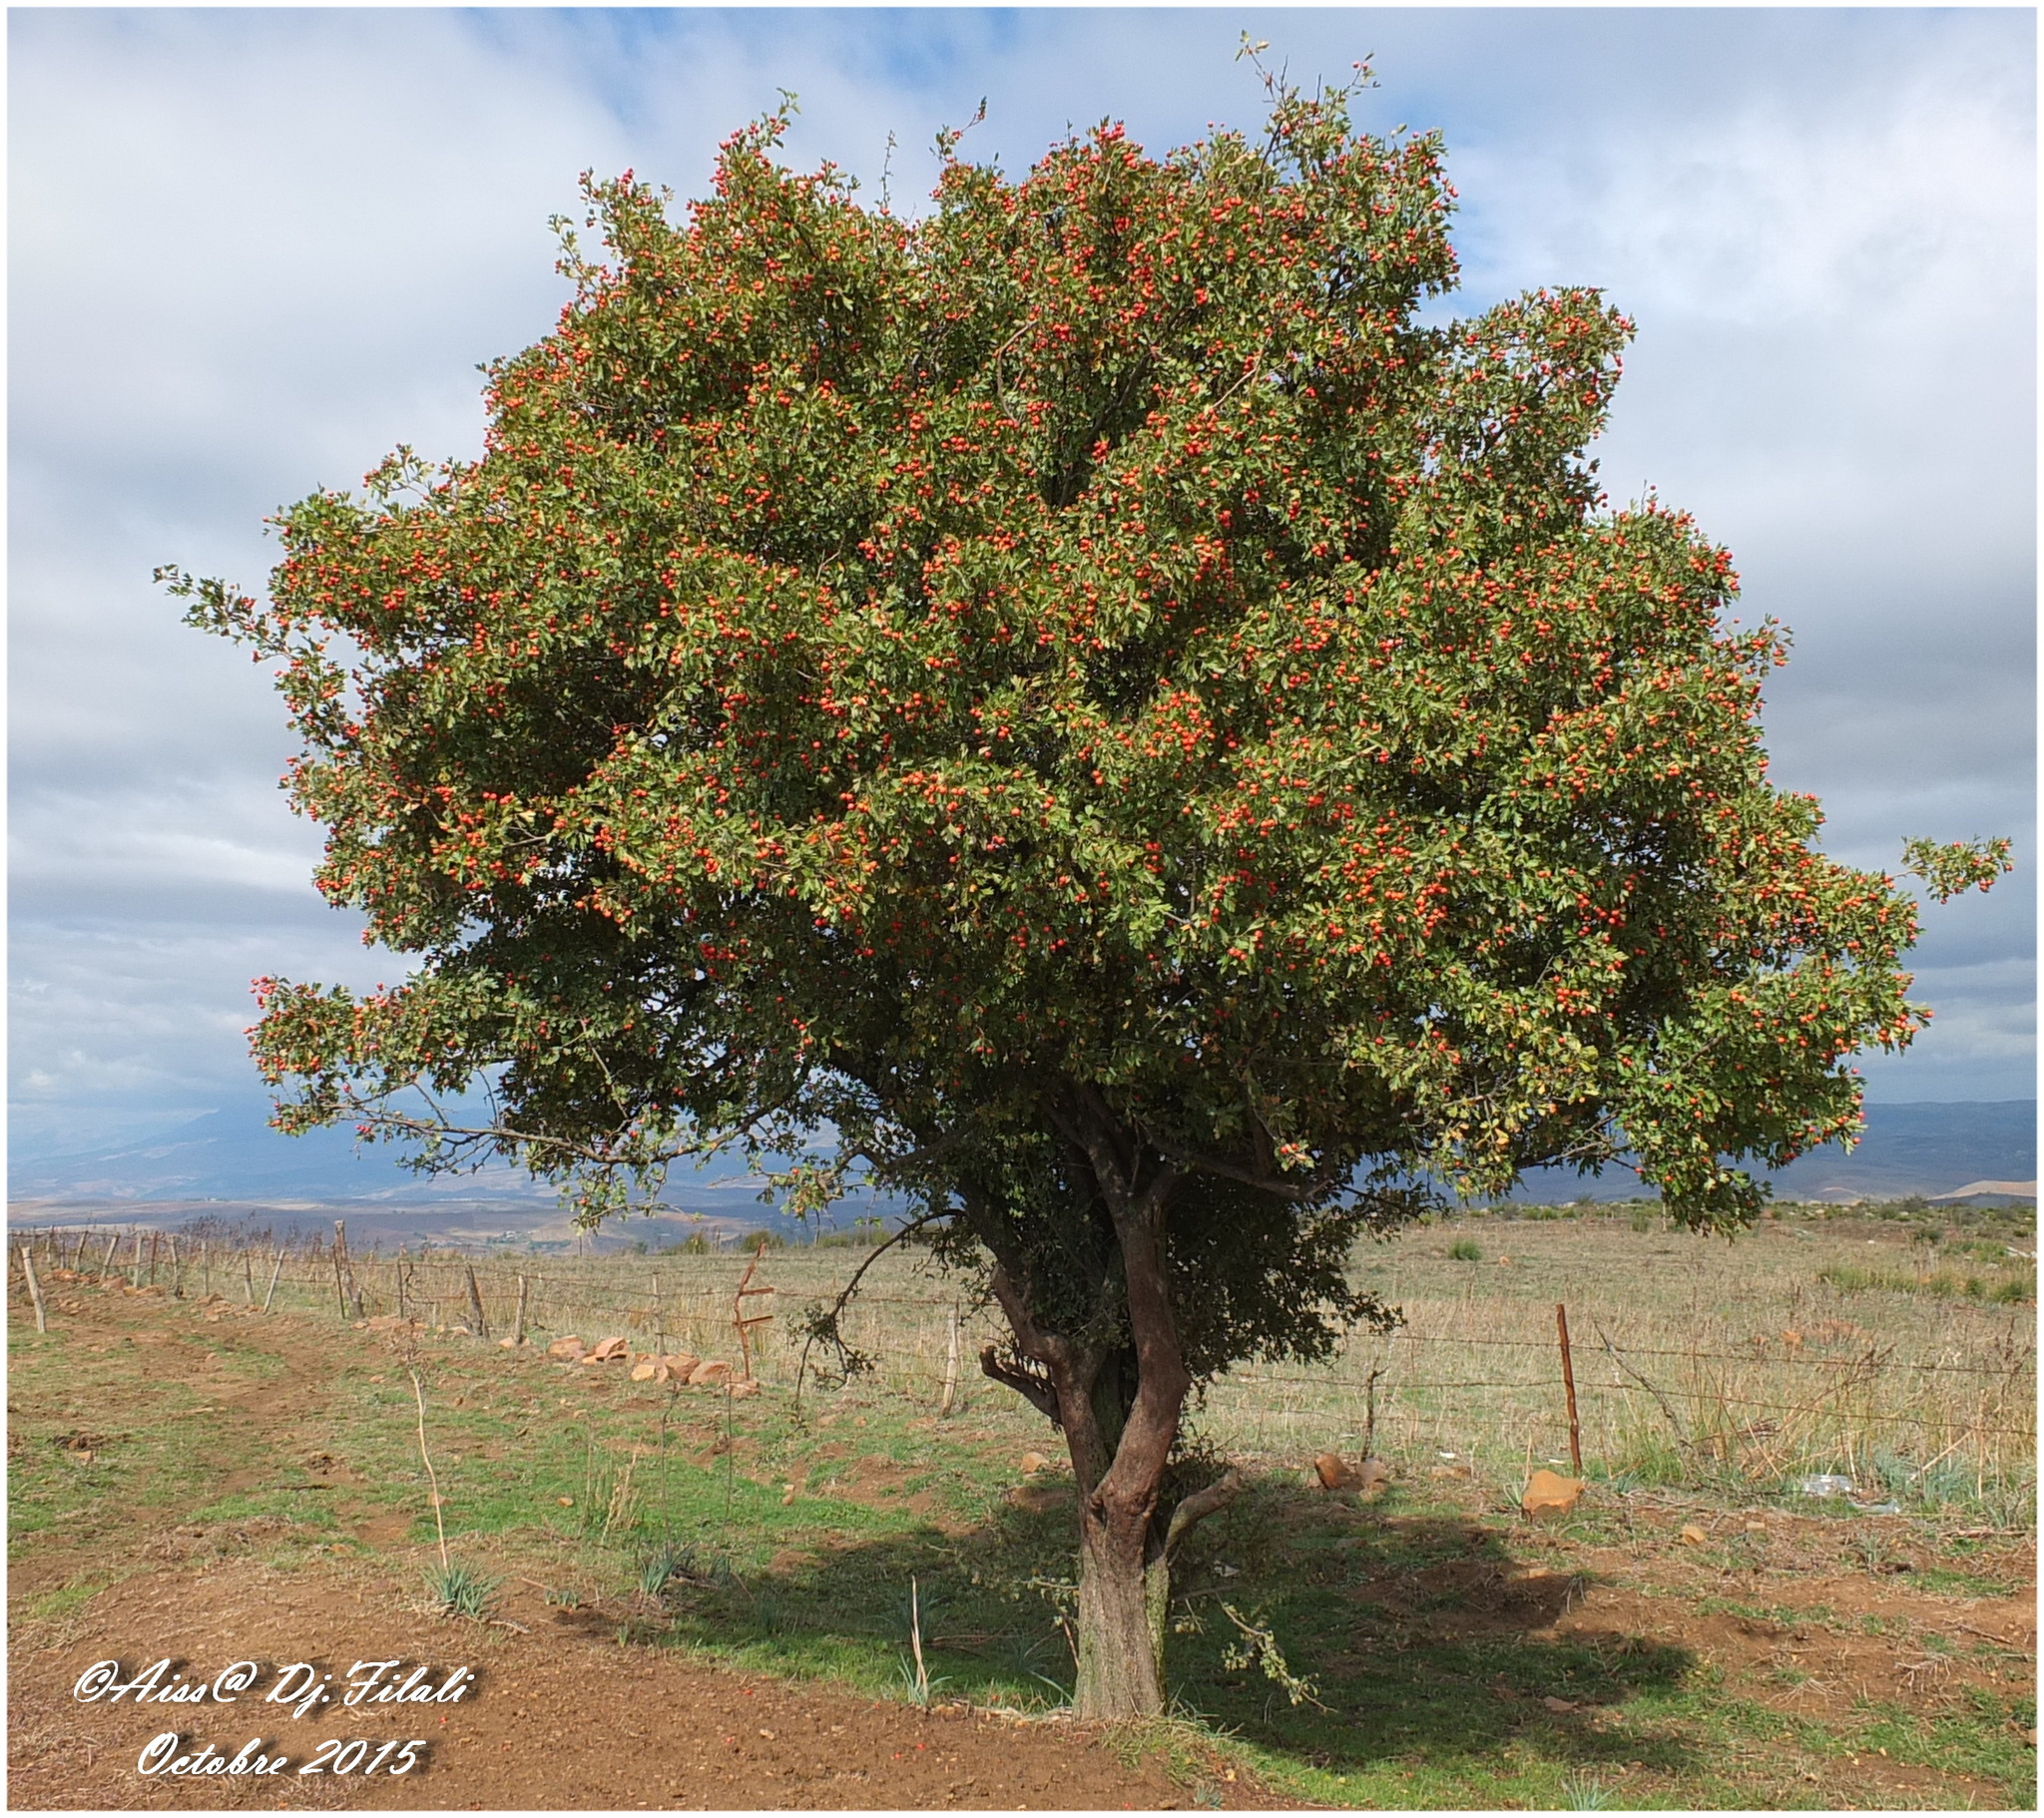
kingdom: Plantae
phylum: Tracheophyta
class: Magnoliopsida
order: Rosales
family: Rosaceae
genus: Crataegus
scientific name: Crataegus azarolus
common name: Azarole
